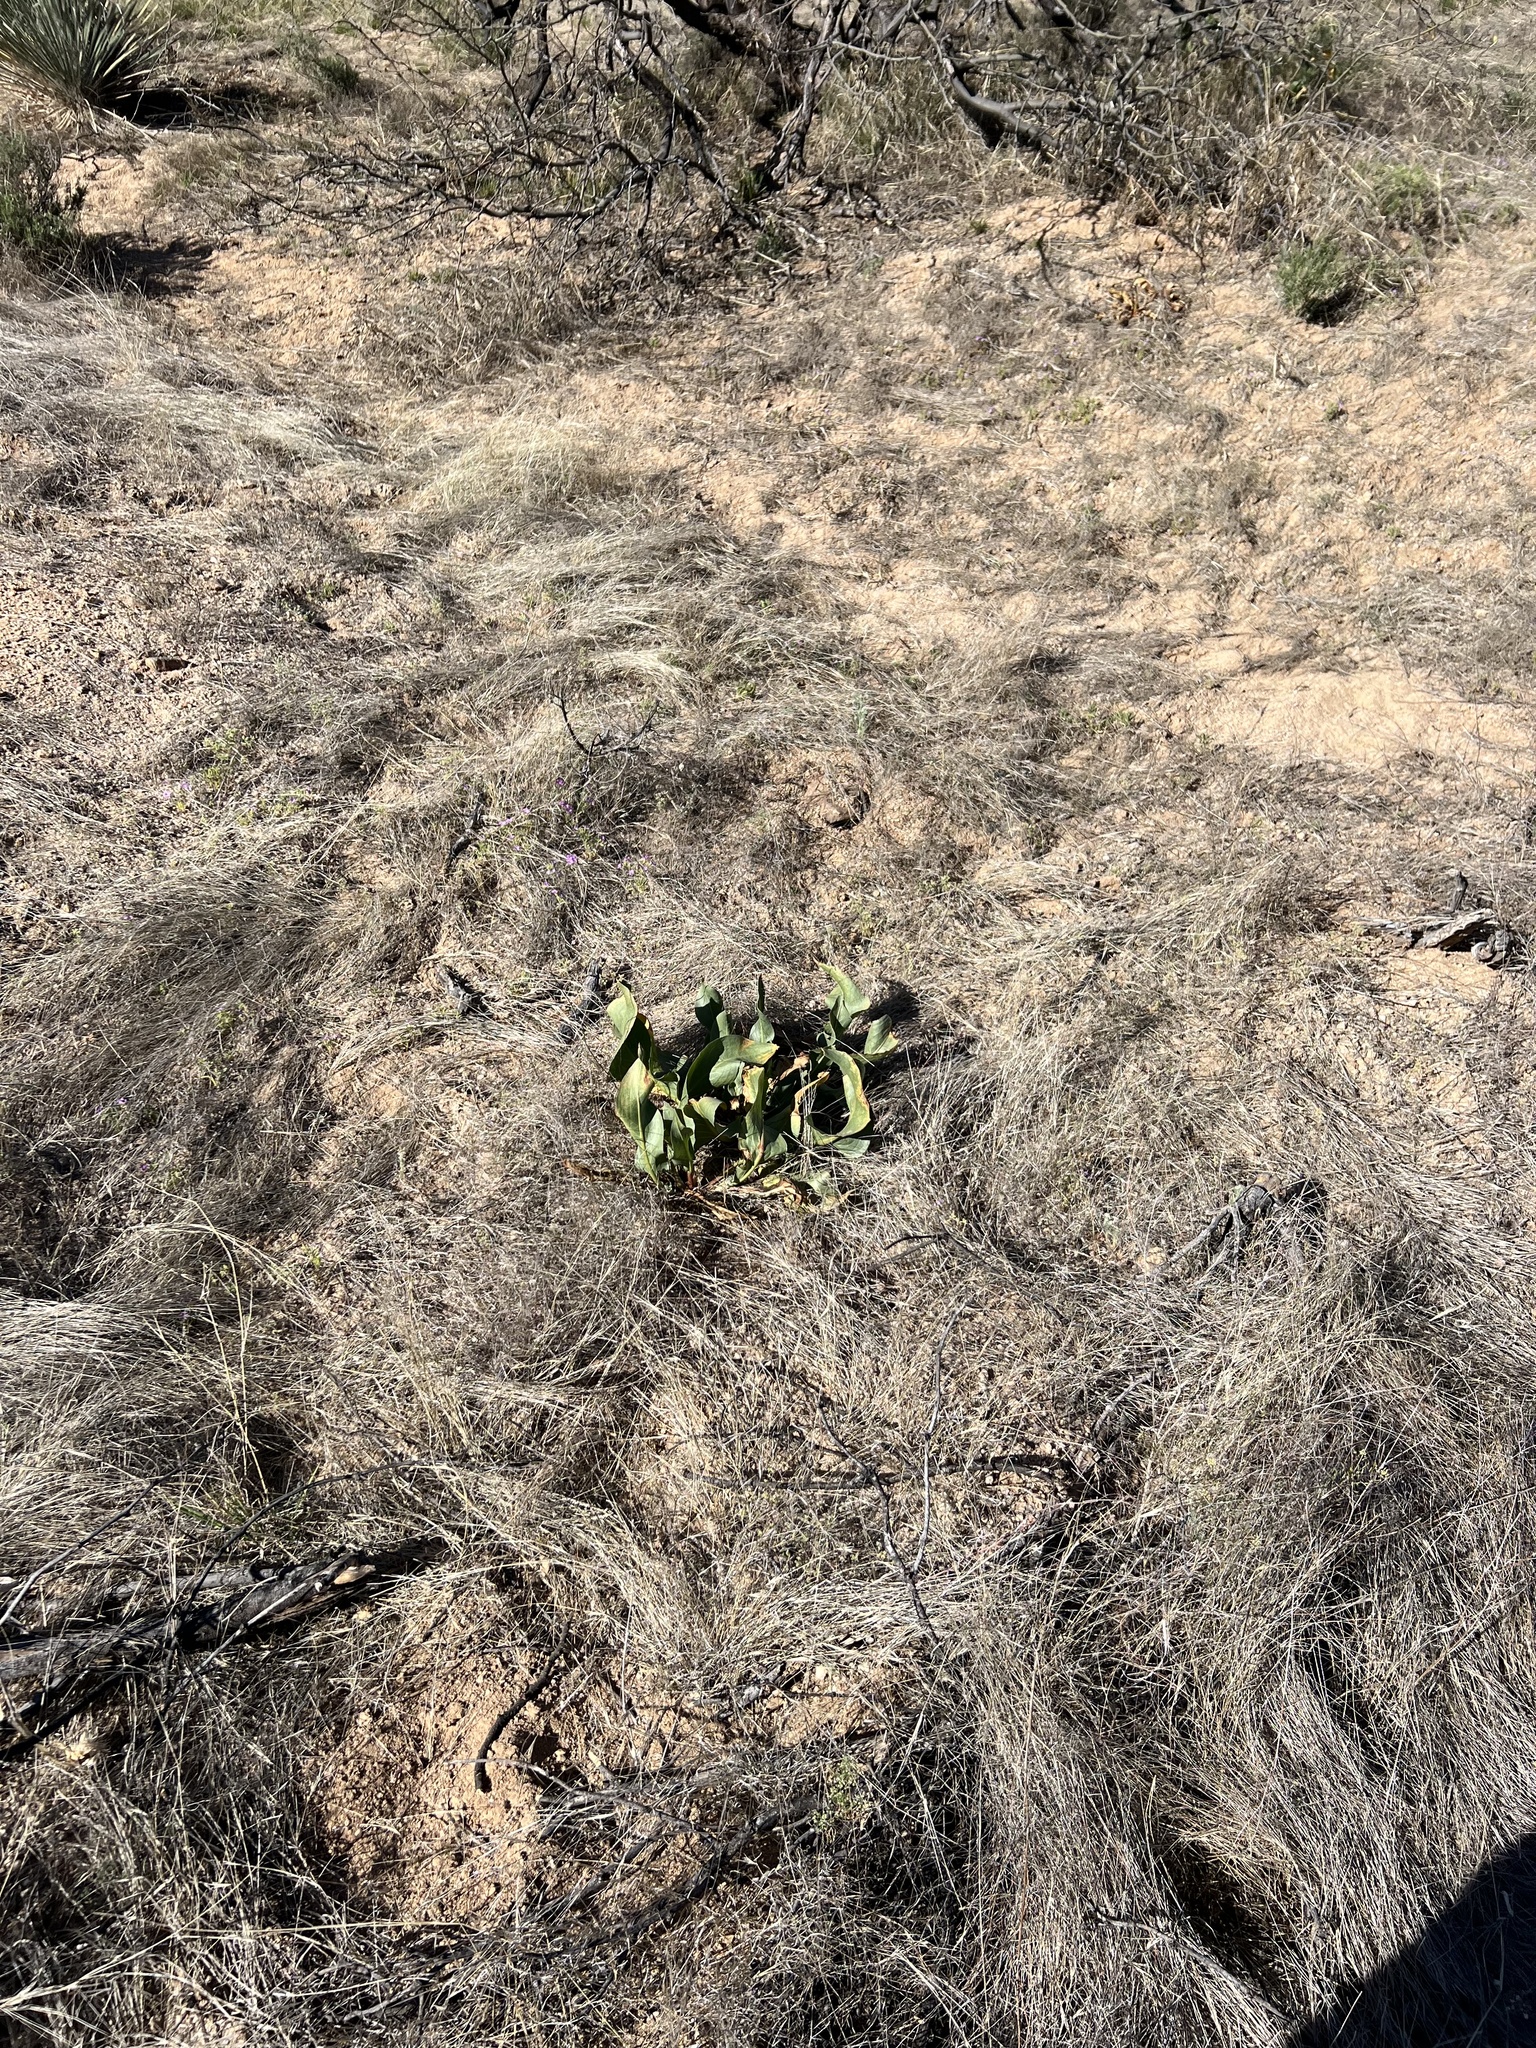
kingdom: Plantae
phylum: Tracheophyta
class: Magnoliopsida
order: Caryophyllales
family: Polygonaceae
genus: Rumex
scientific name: Rumex hymenosepalus
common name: Ganagra
